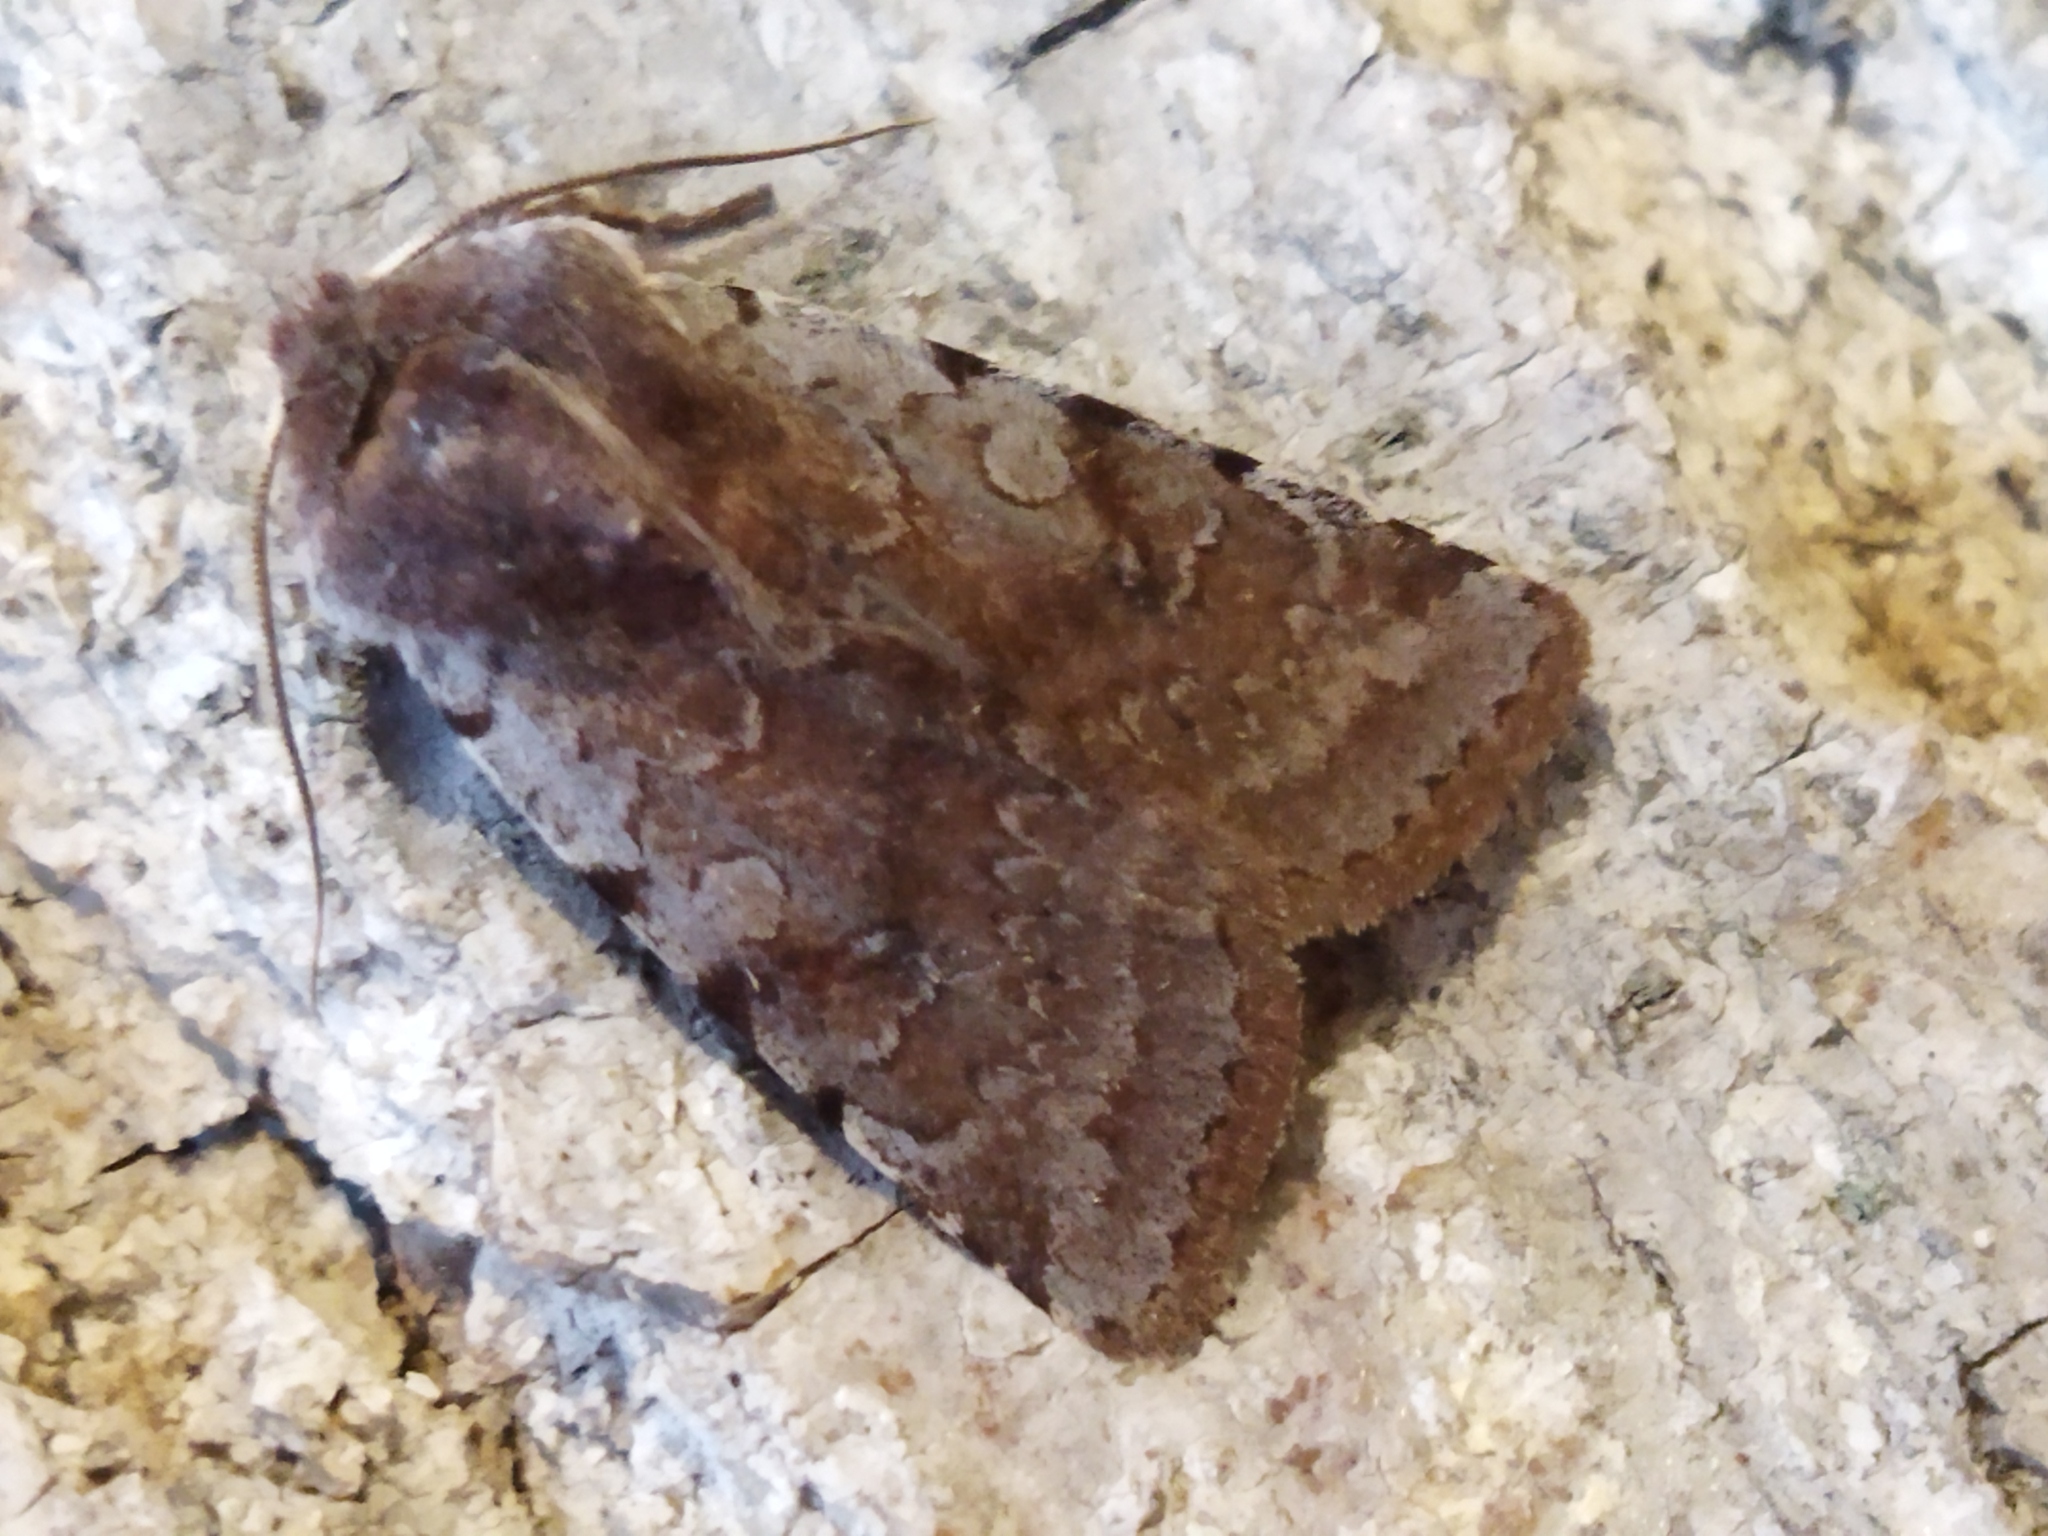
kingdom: Animalia
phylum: Arthropoda
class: Insecta
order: Lepidoptera
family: Noctuidae
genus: Cerastis
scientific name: Cerastis rubricosa
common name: Red chestnut
